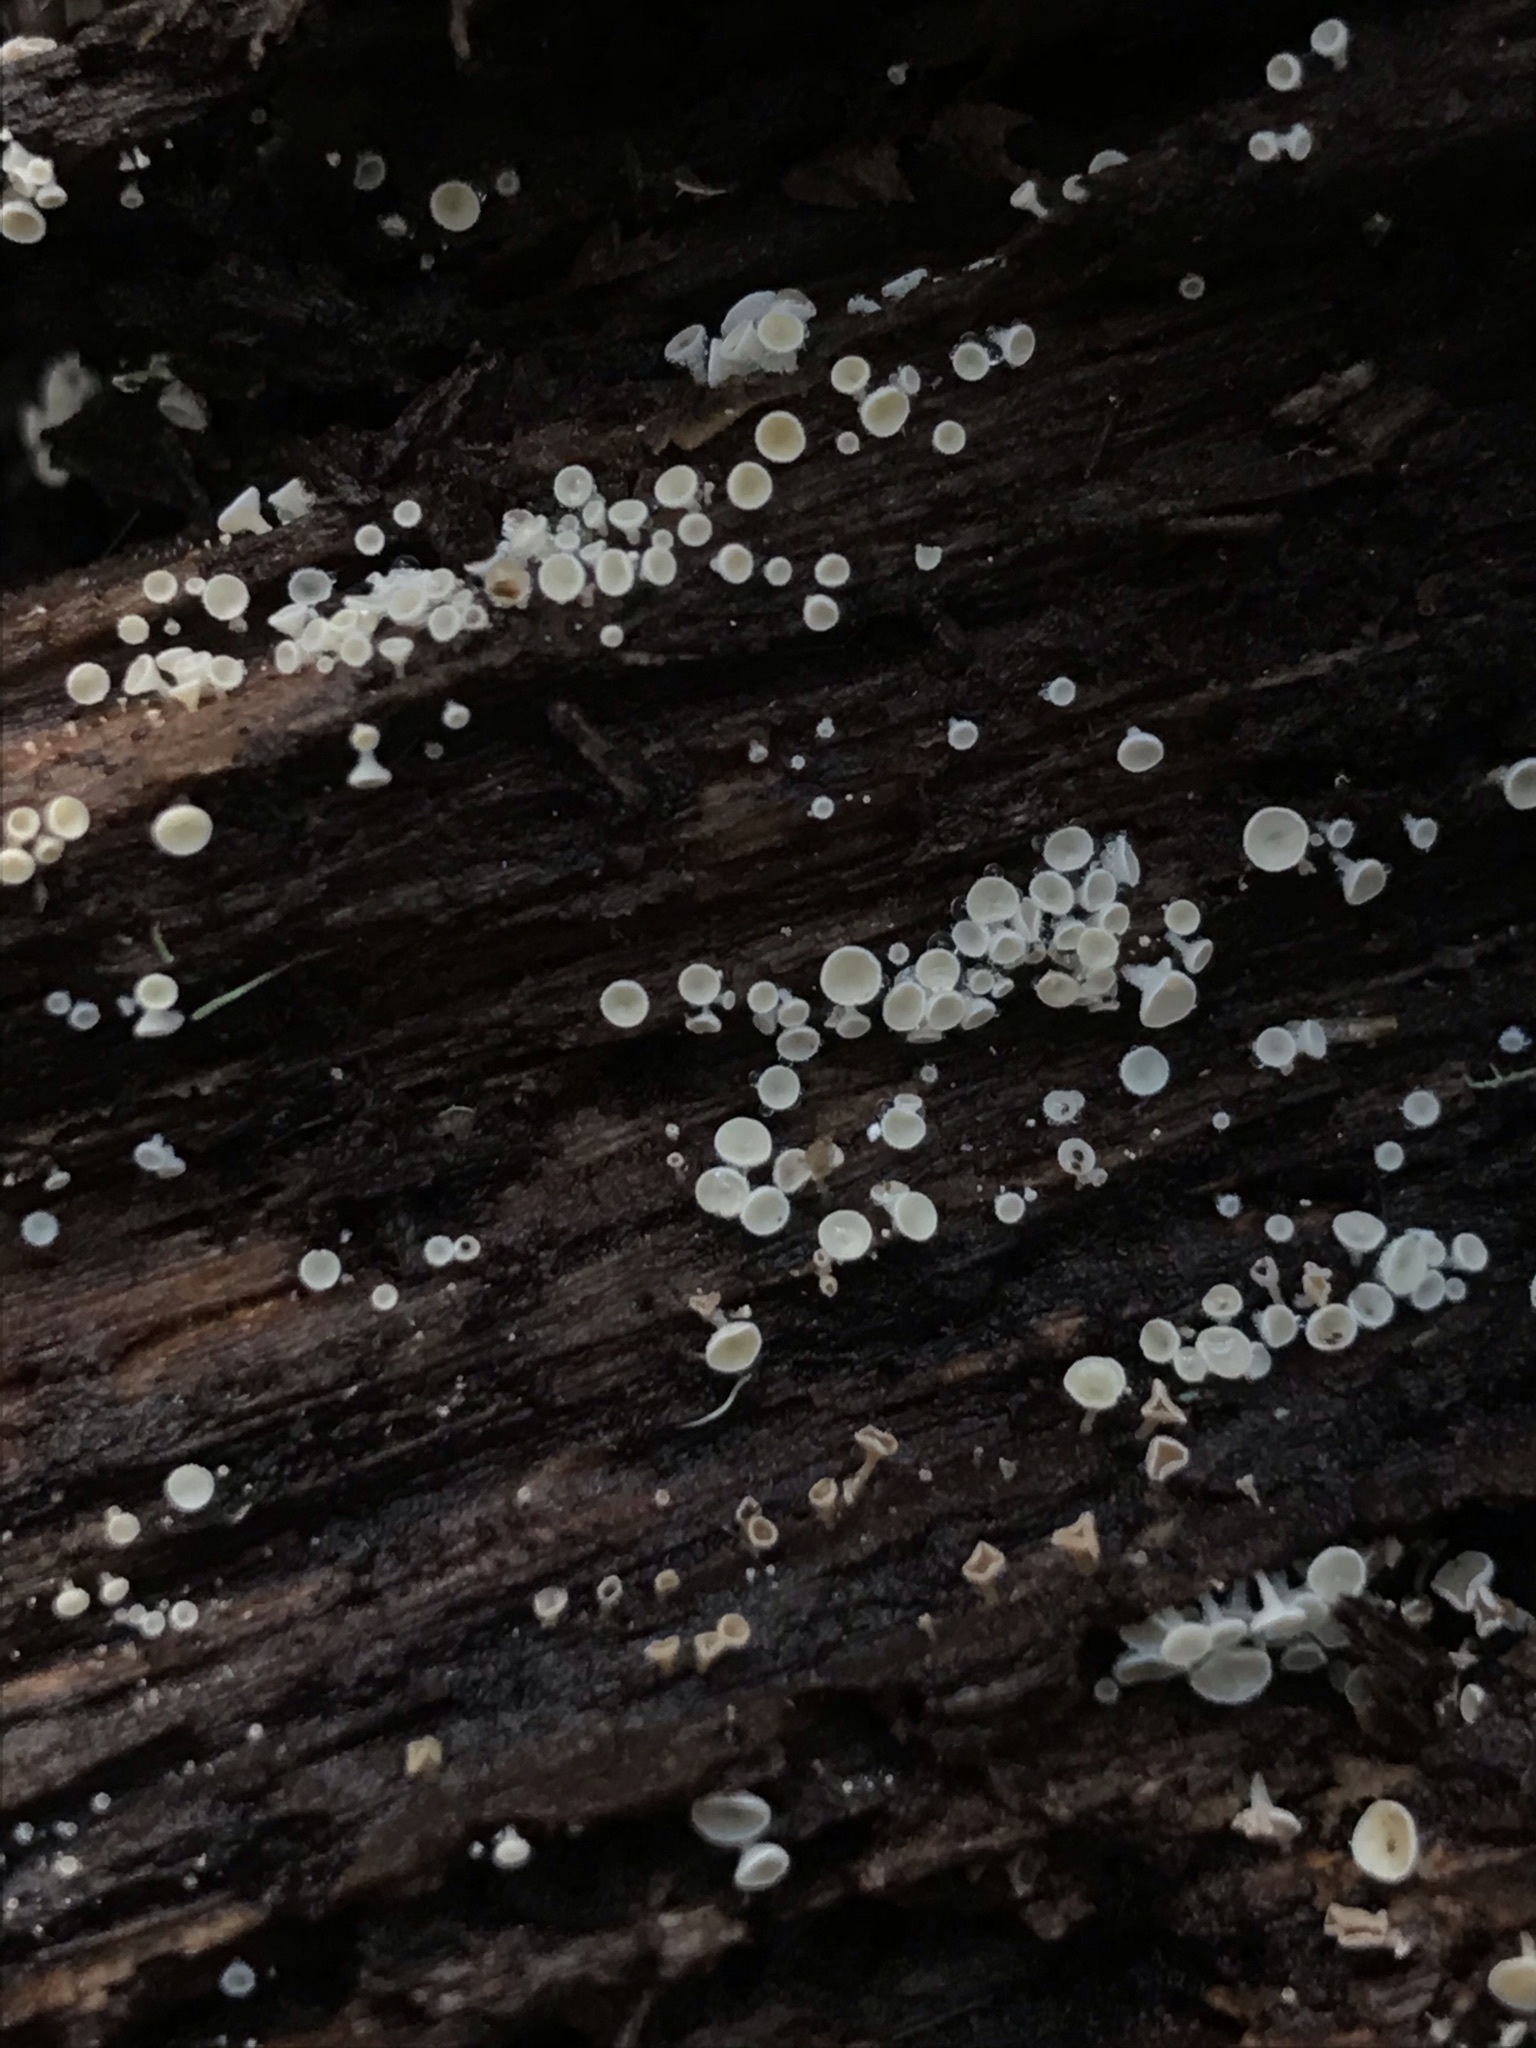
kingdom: Fungi
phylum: Ascomycota
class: Leotiomycetes
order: Helotiales
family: Lachnaceae
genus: Lachnum
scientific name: Lachnum virgineum
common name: Snowy disco
